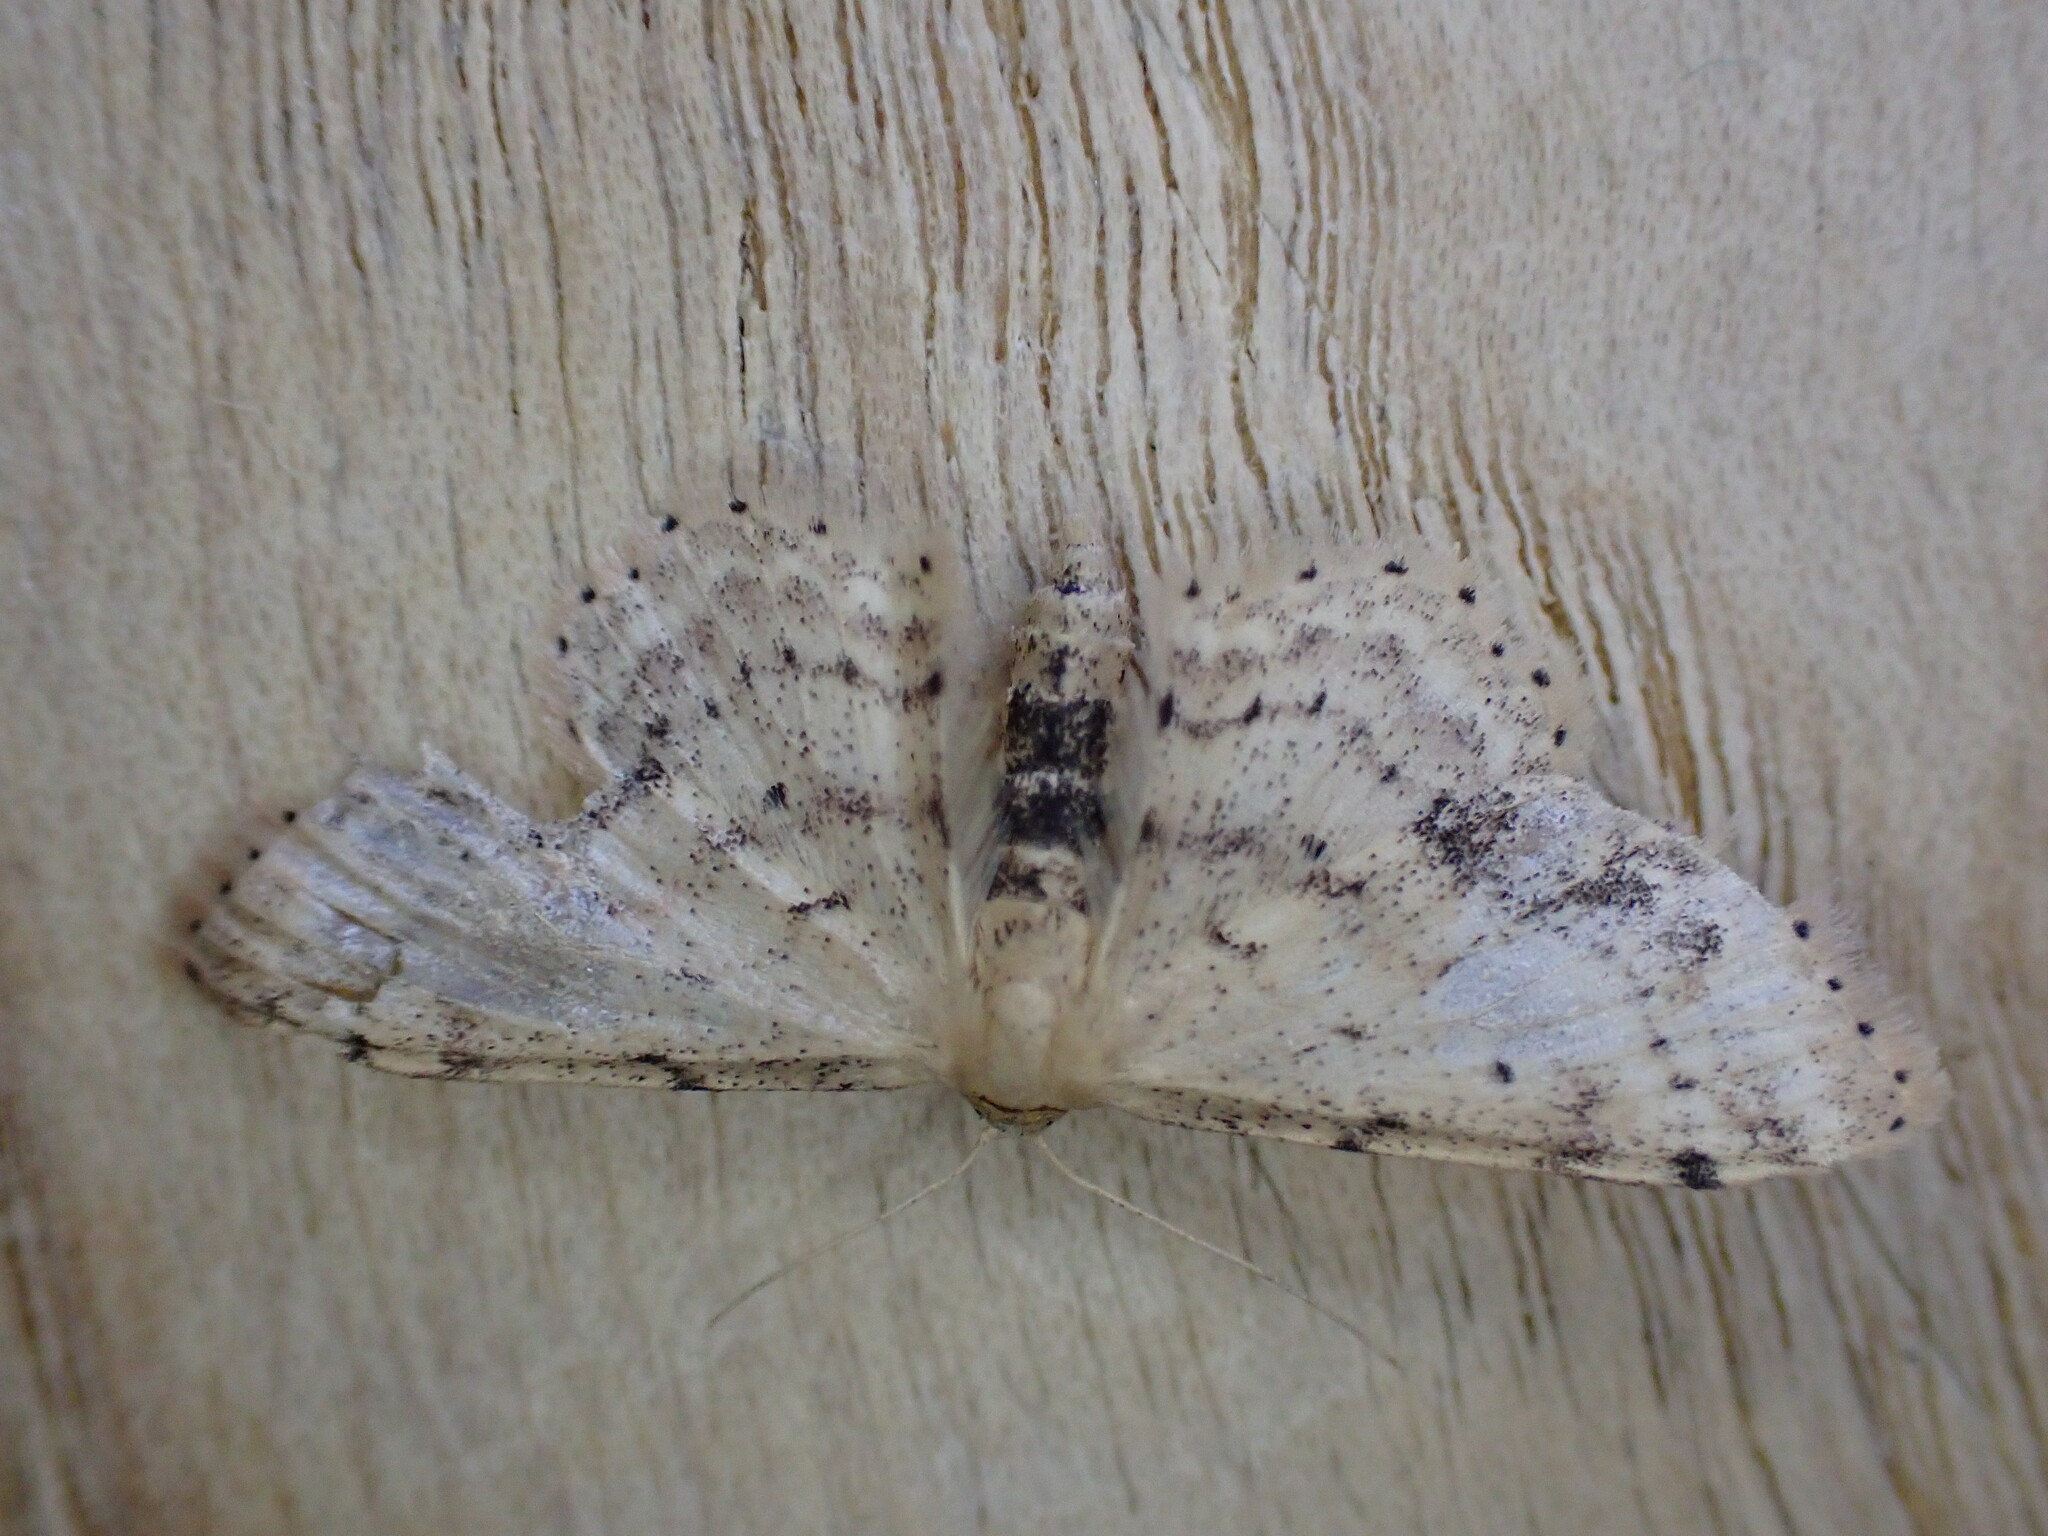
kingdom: Animalia
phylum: Arthropoda
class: Insecta
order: Lepidoptera
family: Geometridae
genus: Idaea
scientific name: Idaea dimidiata
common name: Single-dotted wave
